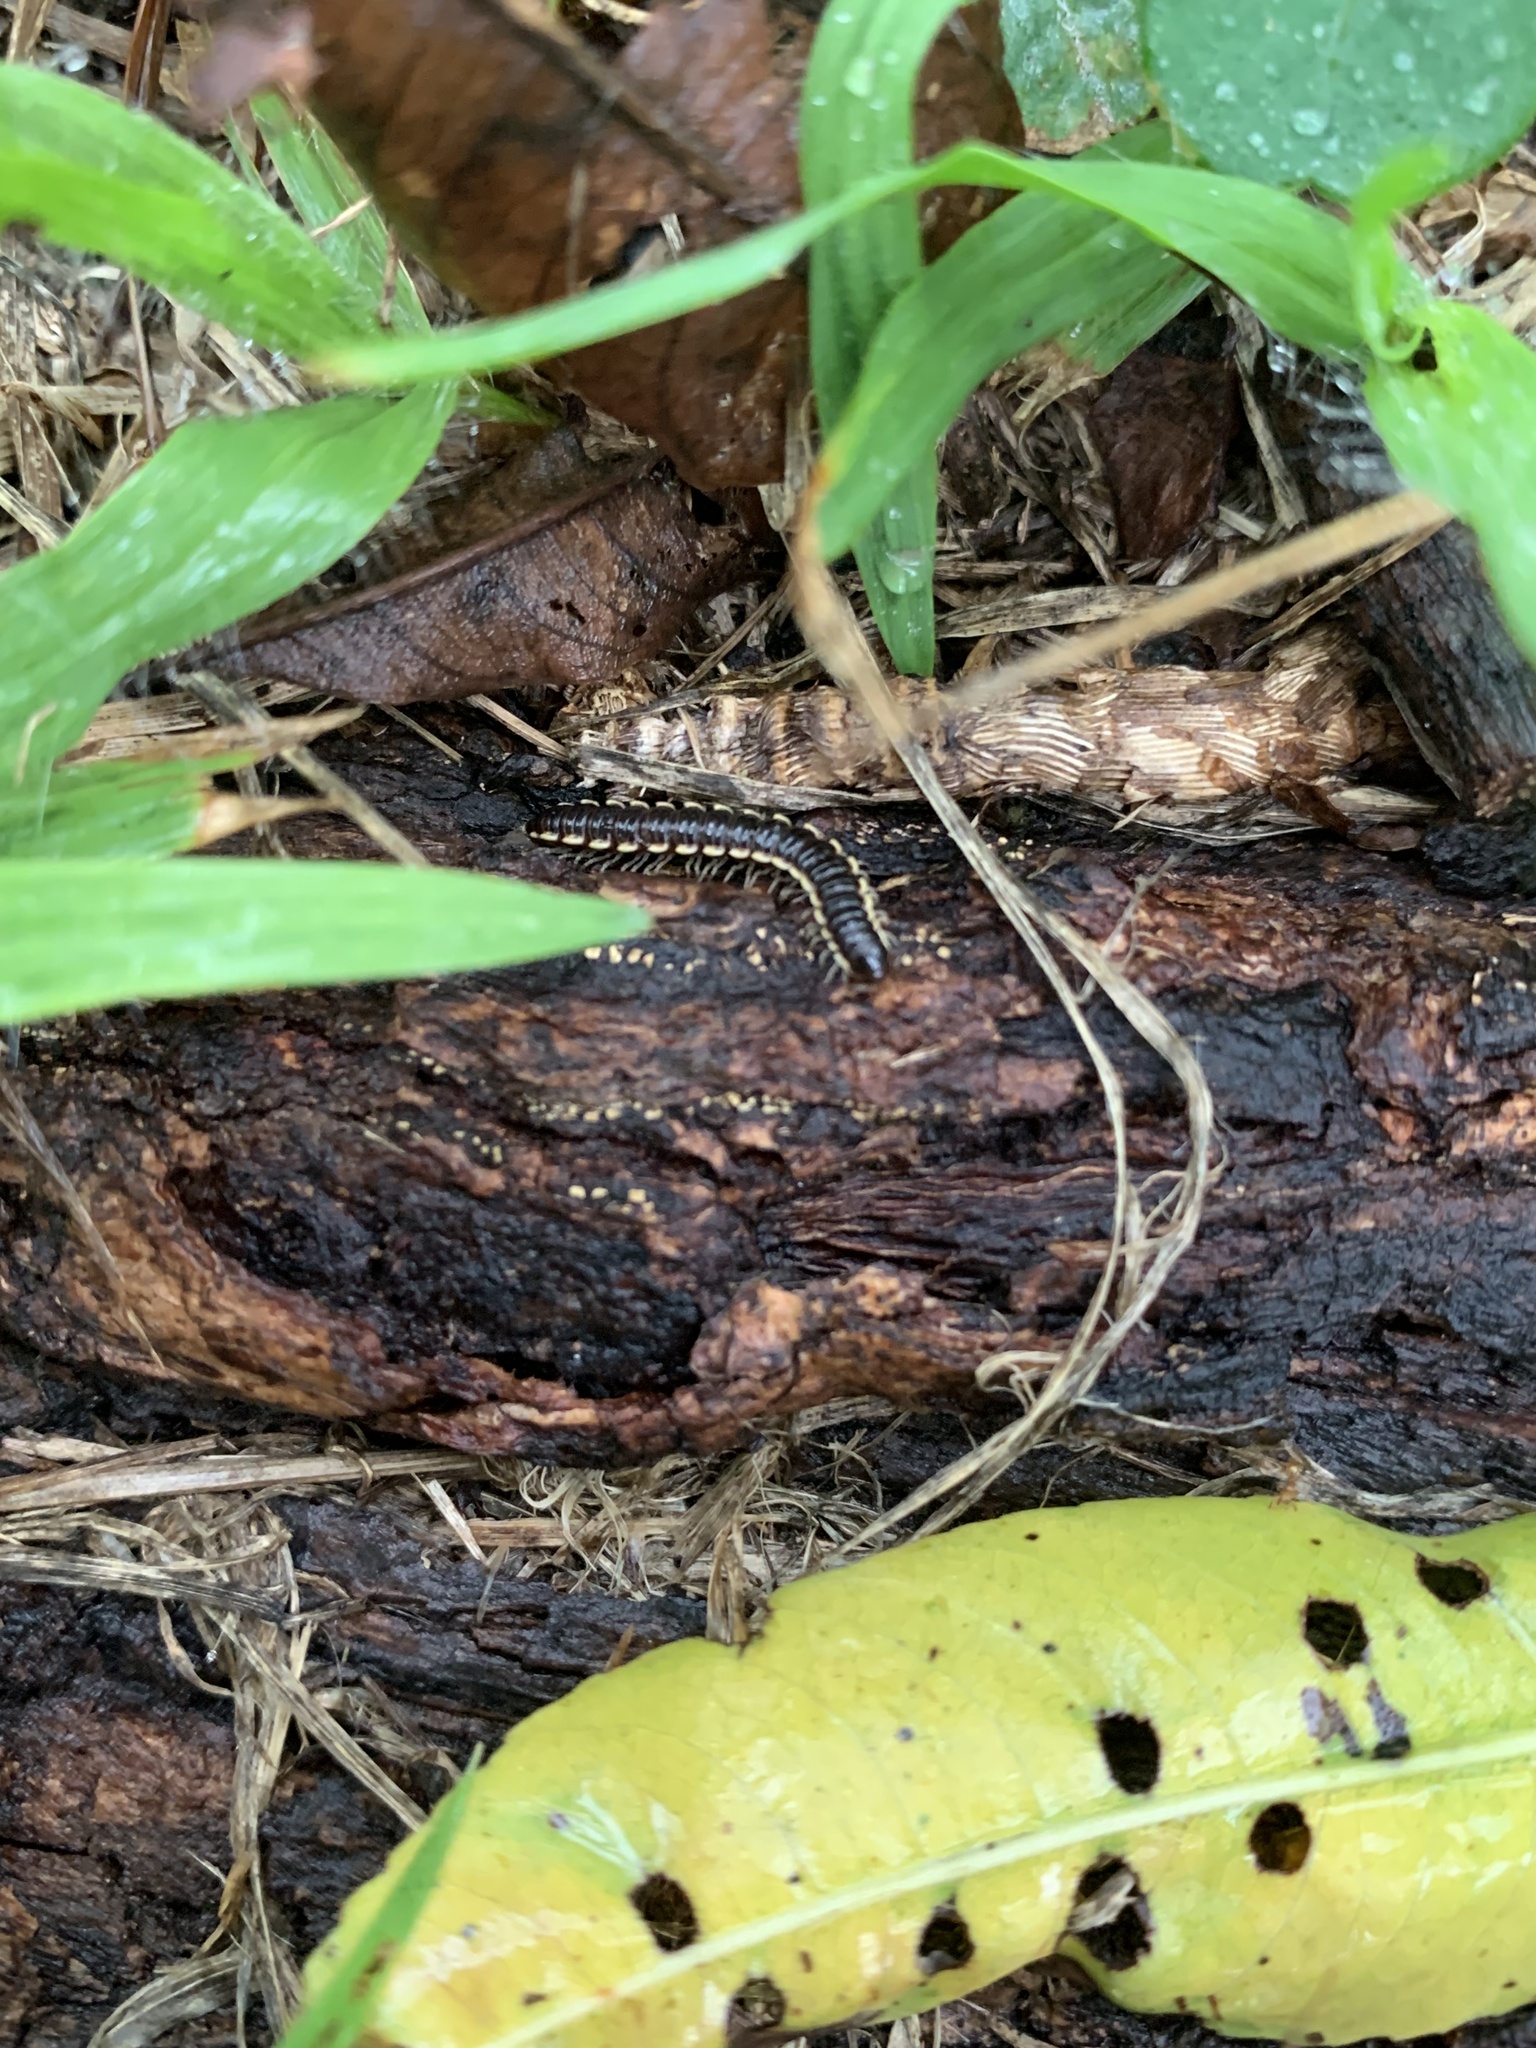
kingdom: Animalia
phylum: Arthropoda
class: Diplopoda
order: Polydesmida
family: Paradoxosomatidae
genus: Orthomorpha
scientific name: Orthomorpha coarctata
